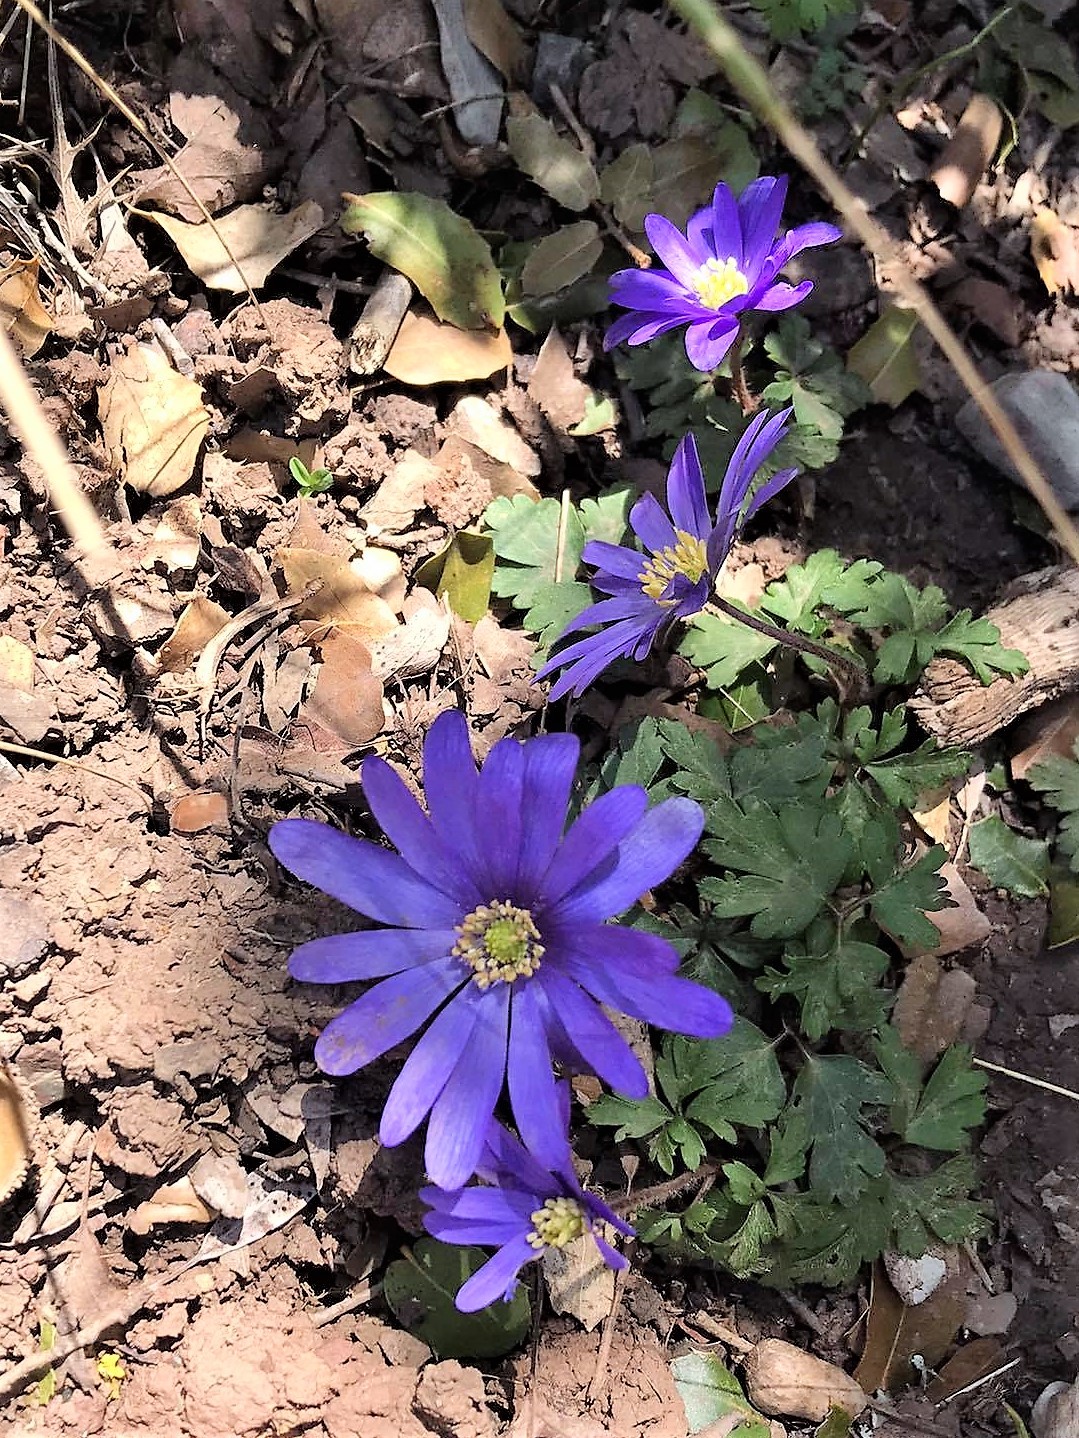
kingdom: Plantae
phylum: Tracheophyta
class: Magnoliopsida
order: Ranunculales
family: Ranunculaceae
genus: Anemone
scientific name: Anemone blanda
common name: Balkan anemone
